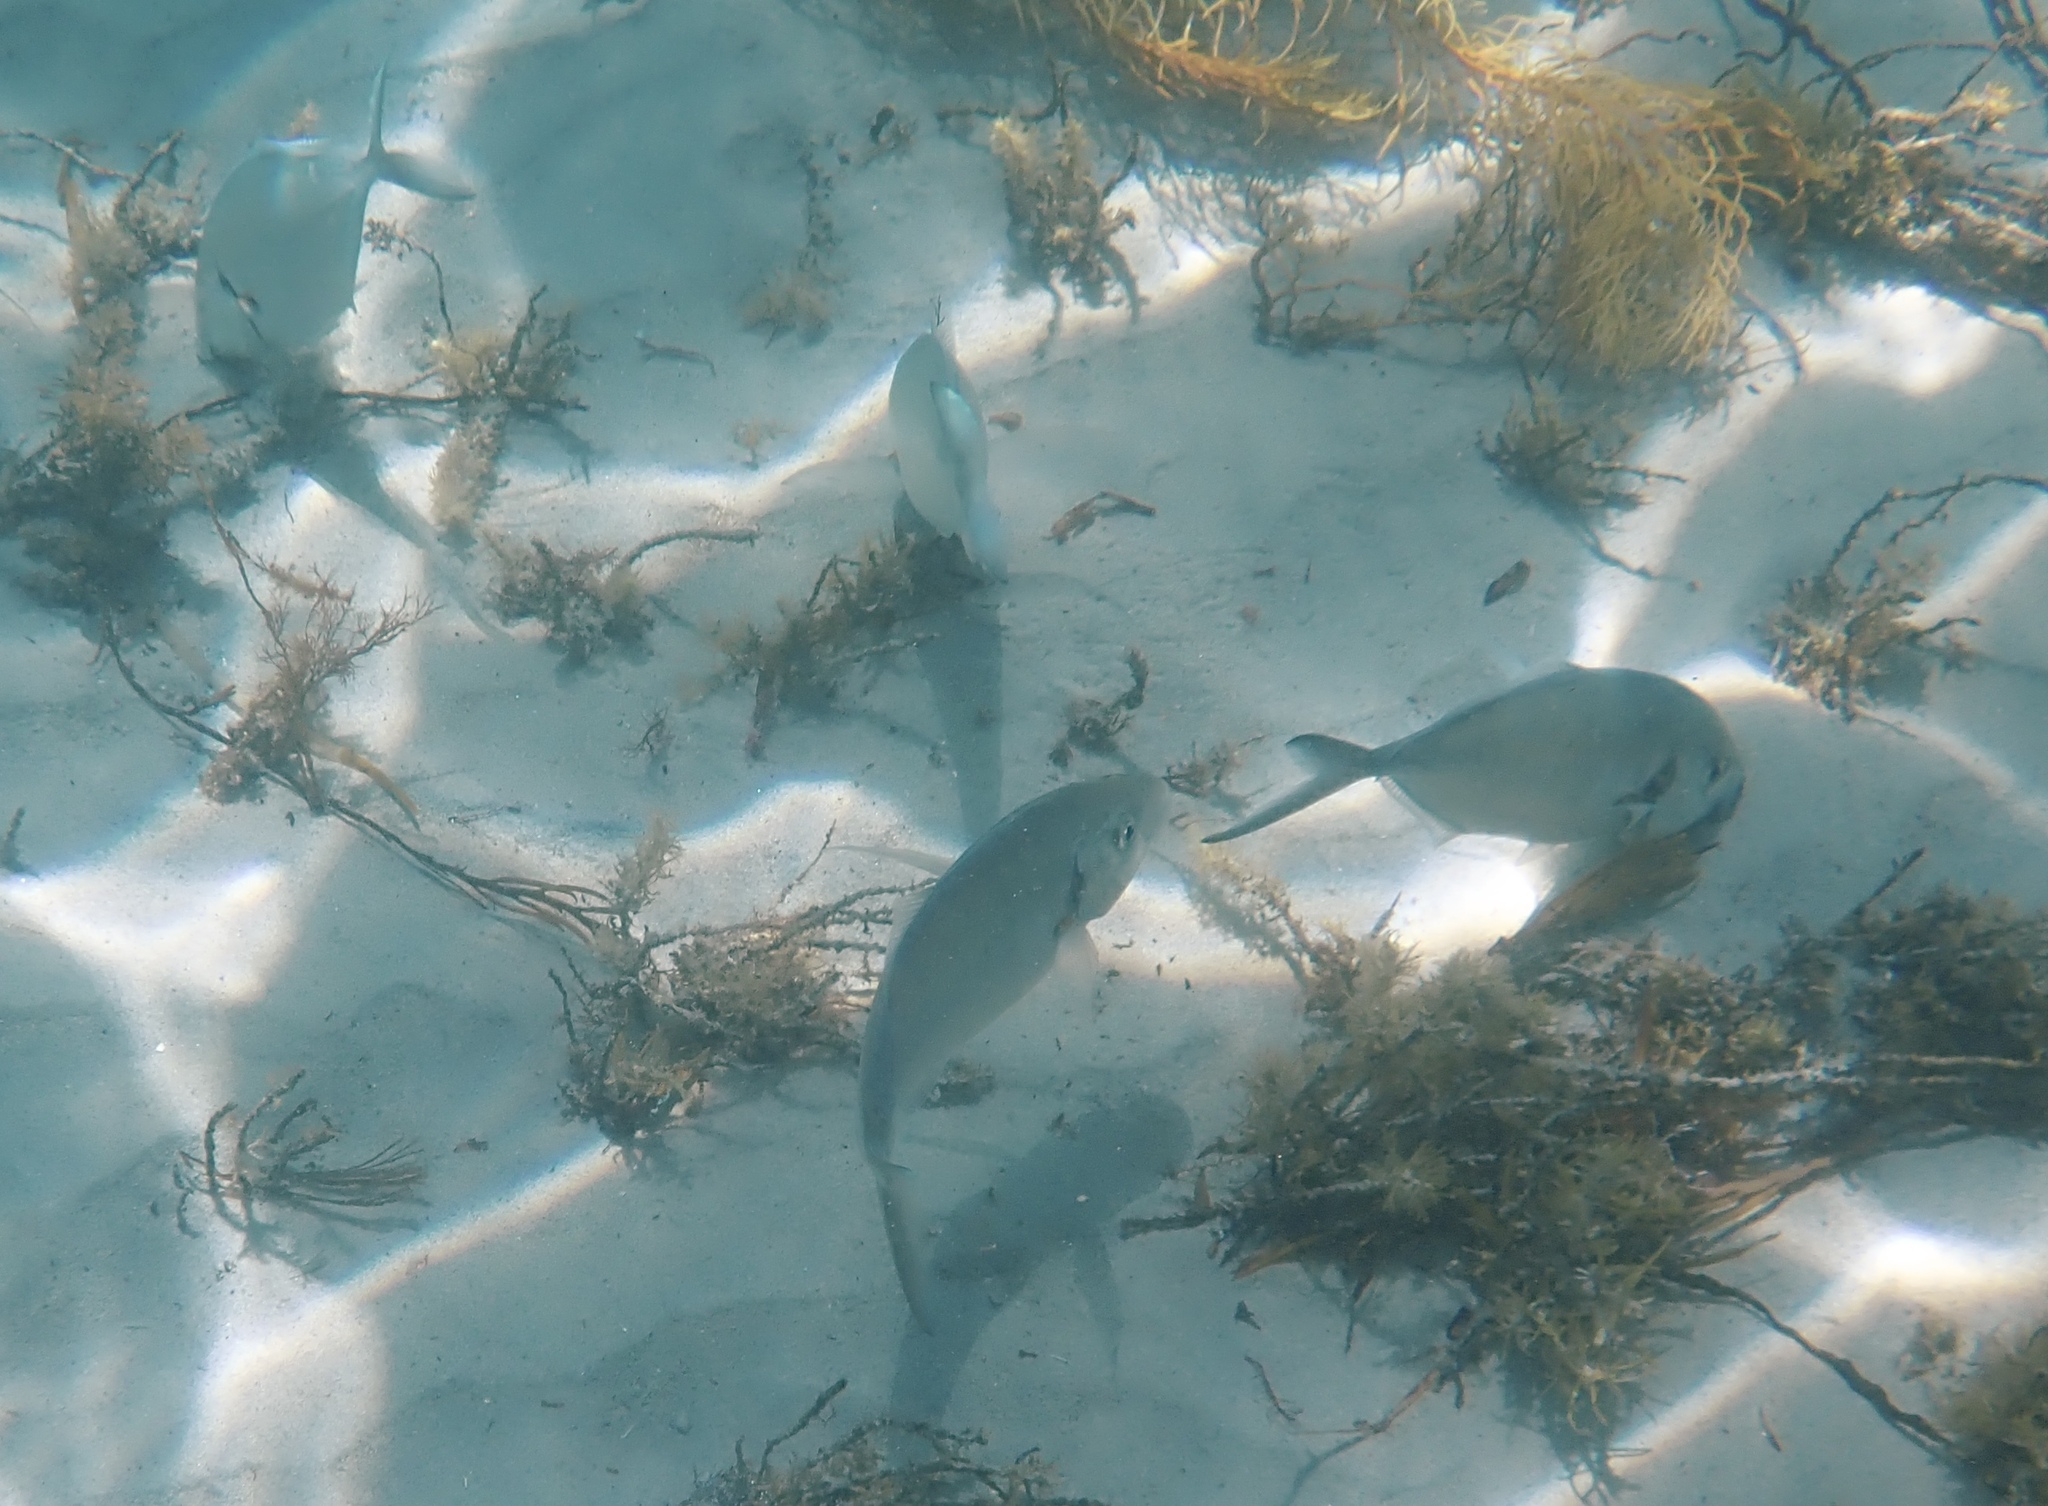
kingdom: Animalia
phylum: Chordata
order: Perciformes
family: Carangidae
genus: Pseudocaranx
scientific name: Pseudocaranx dentex
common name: White trevally
